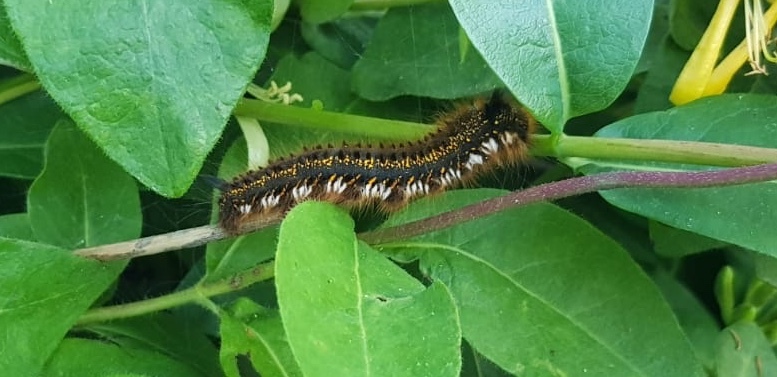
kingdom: Animalia
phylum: Arthropoda
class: Insecta
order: Lepidoptera
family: Lasiocampidae
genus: Euthrix
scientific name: Euthrix potatoria
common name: Drinker
